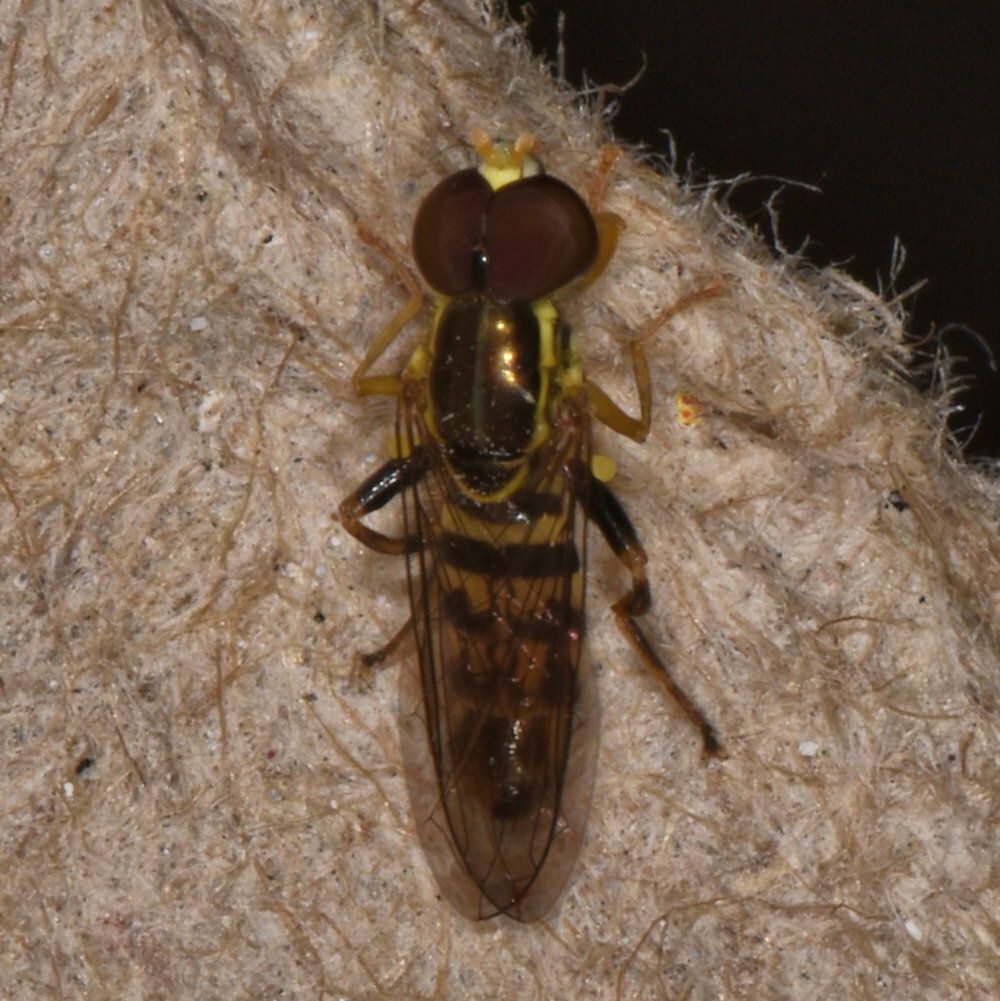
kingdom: Animalia
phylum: Arthropoda
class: Insecta
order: Diptera
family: Syrphidae
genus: Toxomerus
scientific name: Toxomerus geminatus
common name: Eastern calligrapher
